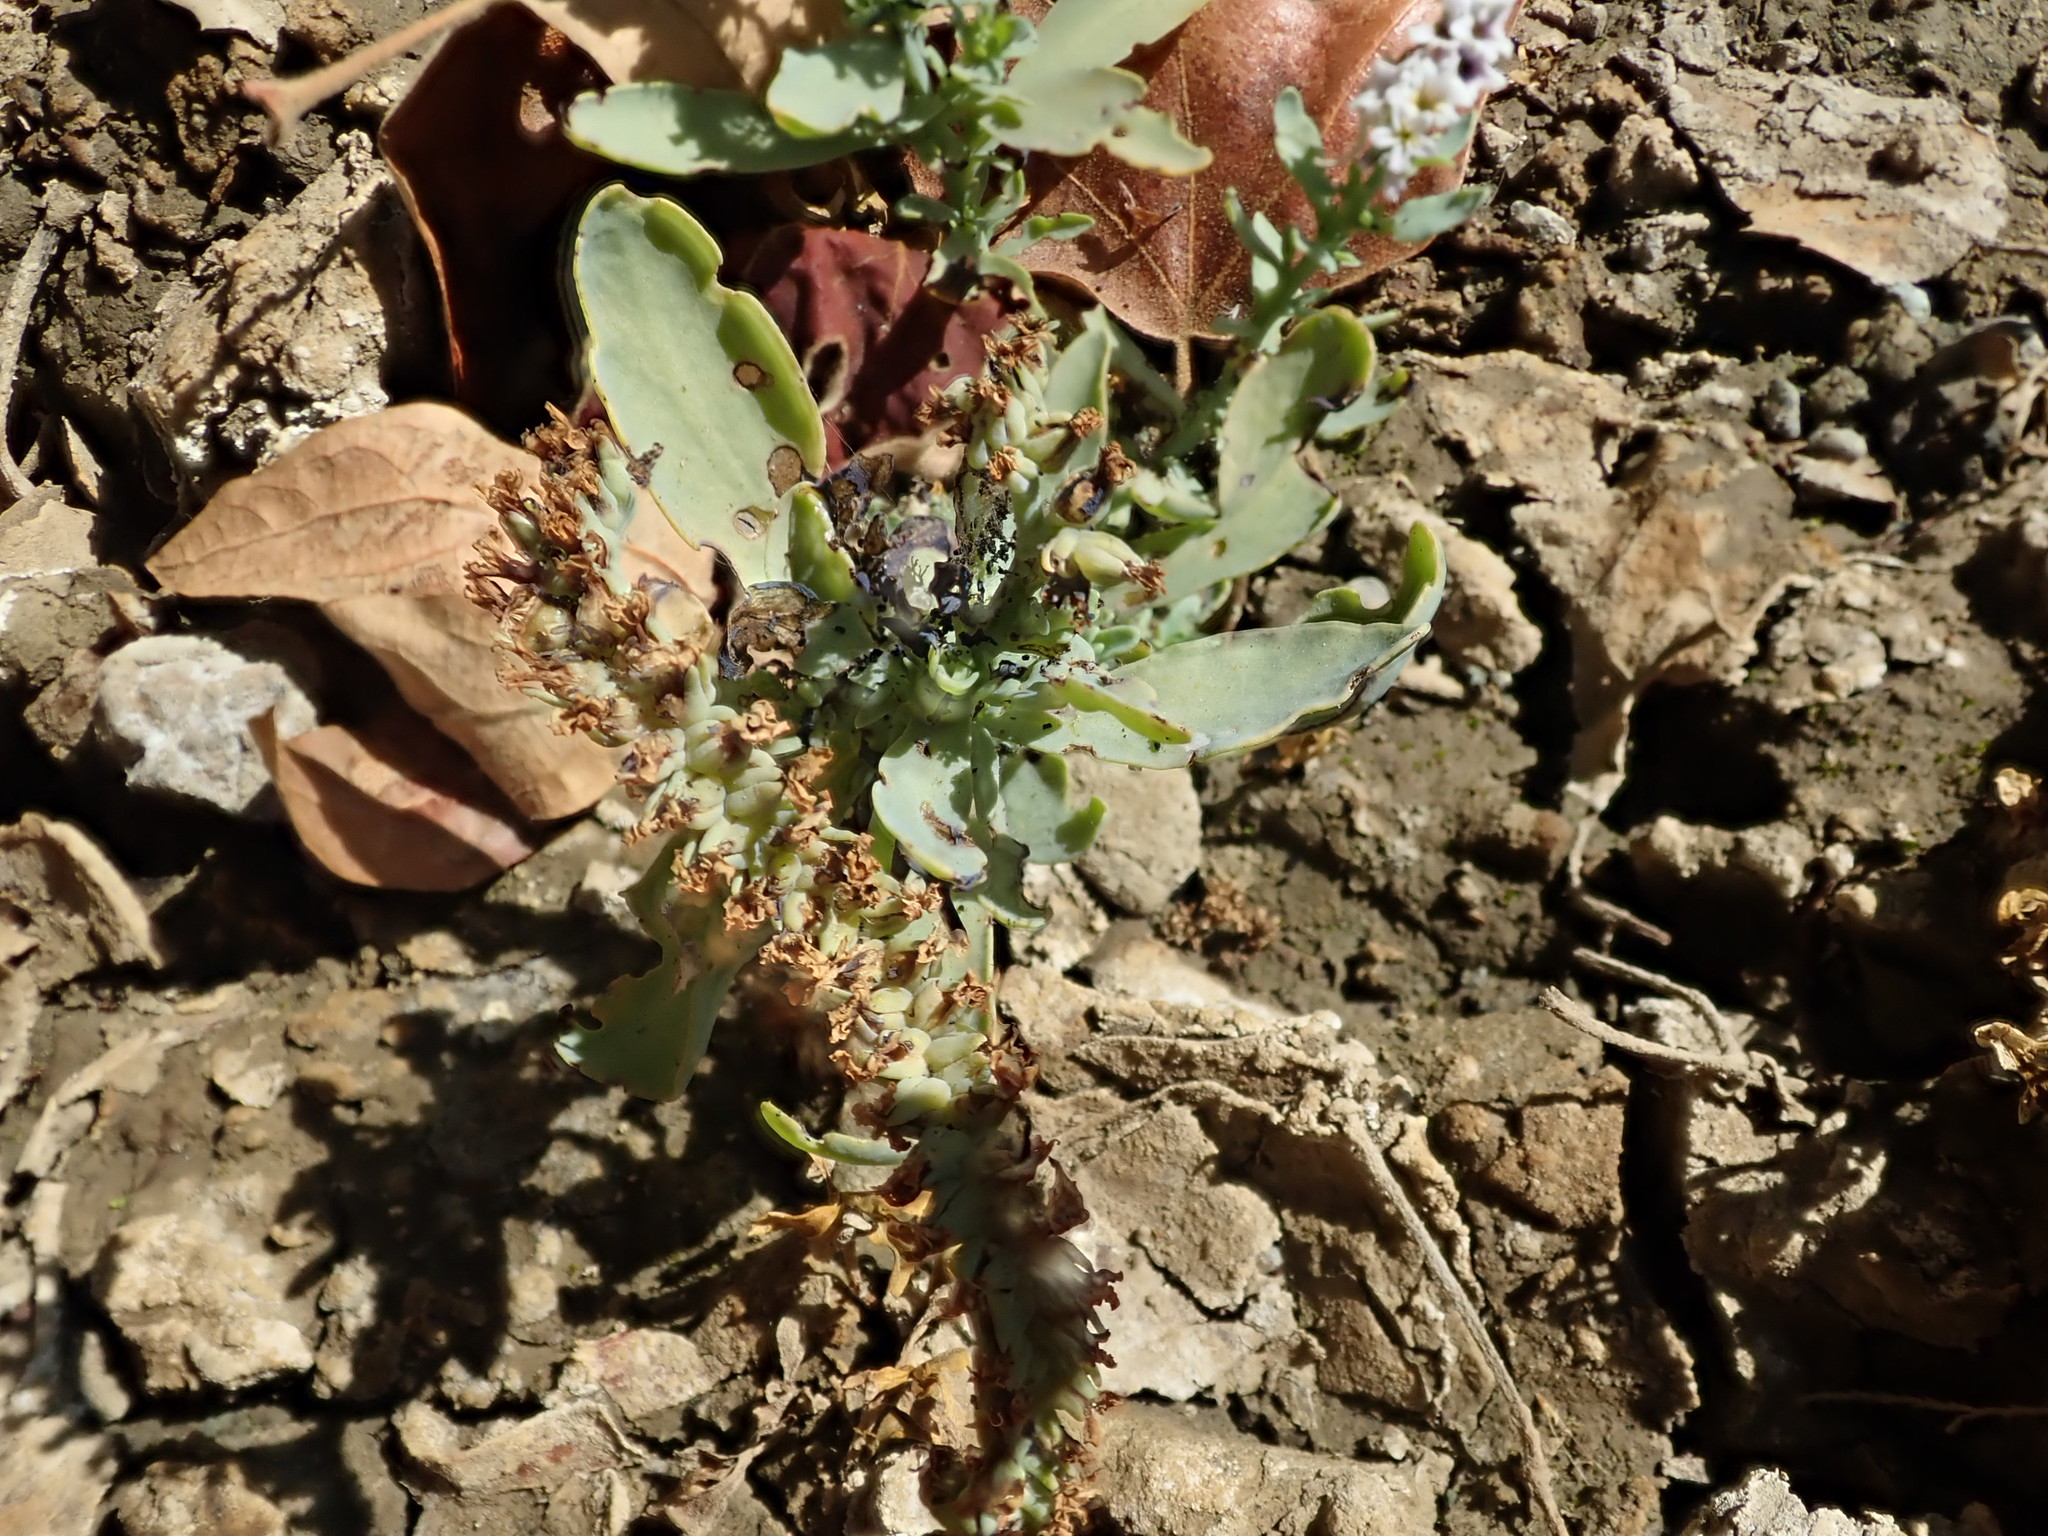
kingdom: Plantae
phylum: Tracheophyta
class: Magnoliopsida
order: Boraginales
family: Heliotropiaceae
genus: Heliotropium
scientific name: Heliotropium curassavicum
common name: Seaside heliotrope
